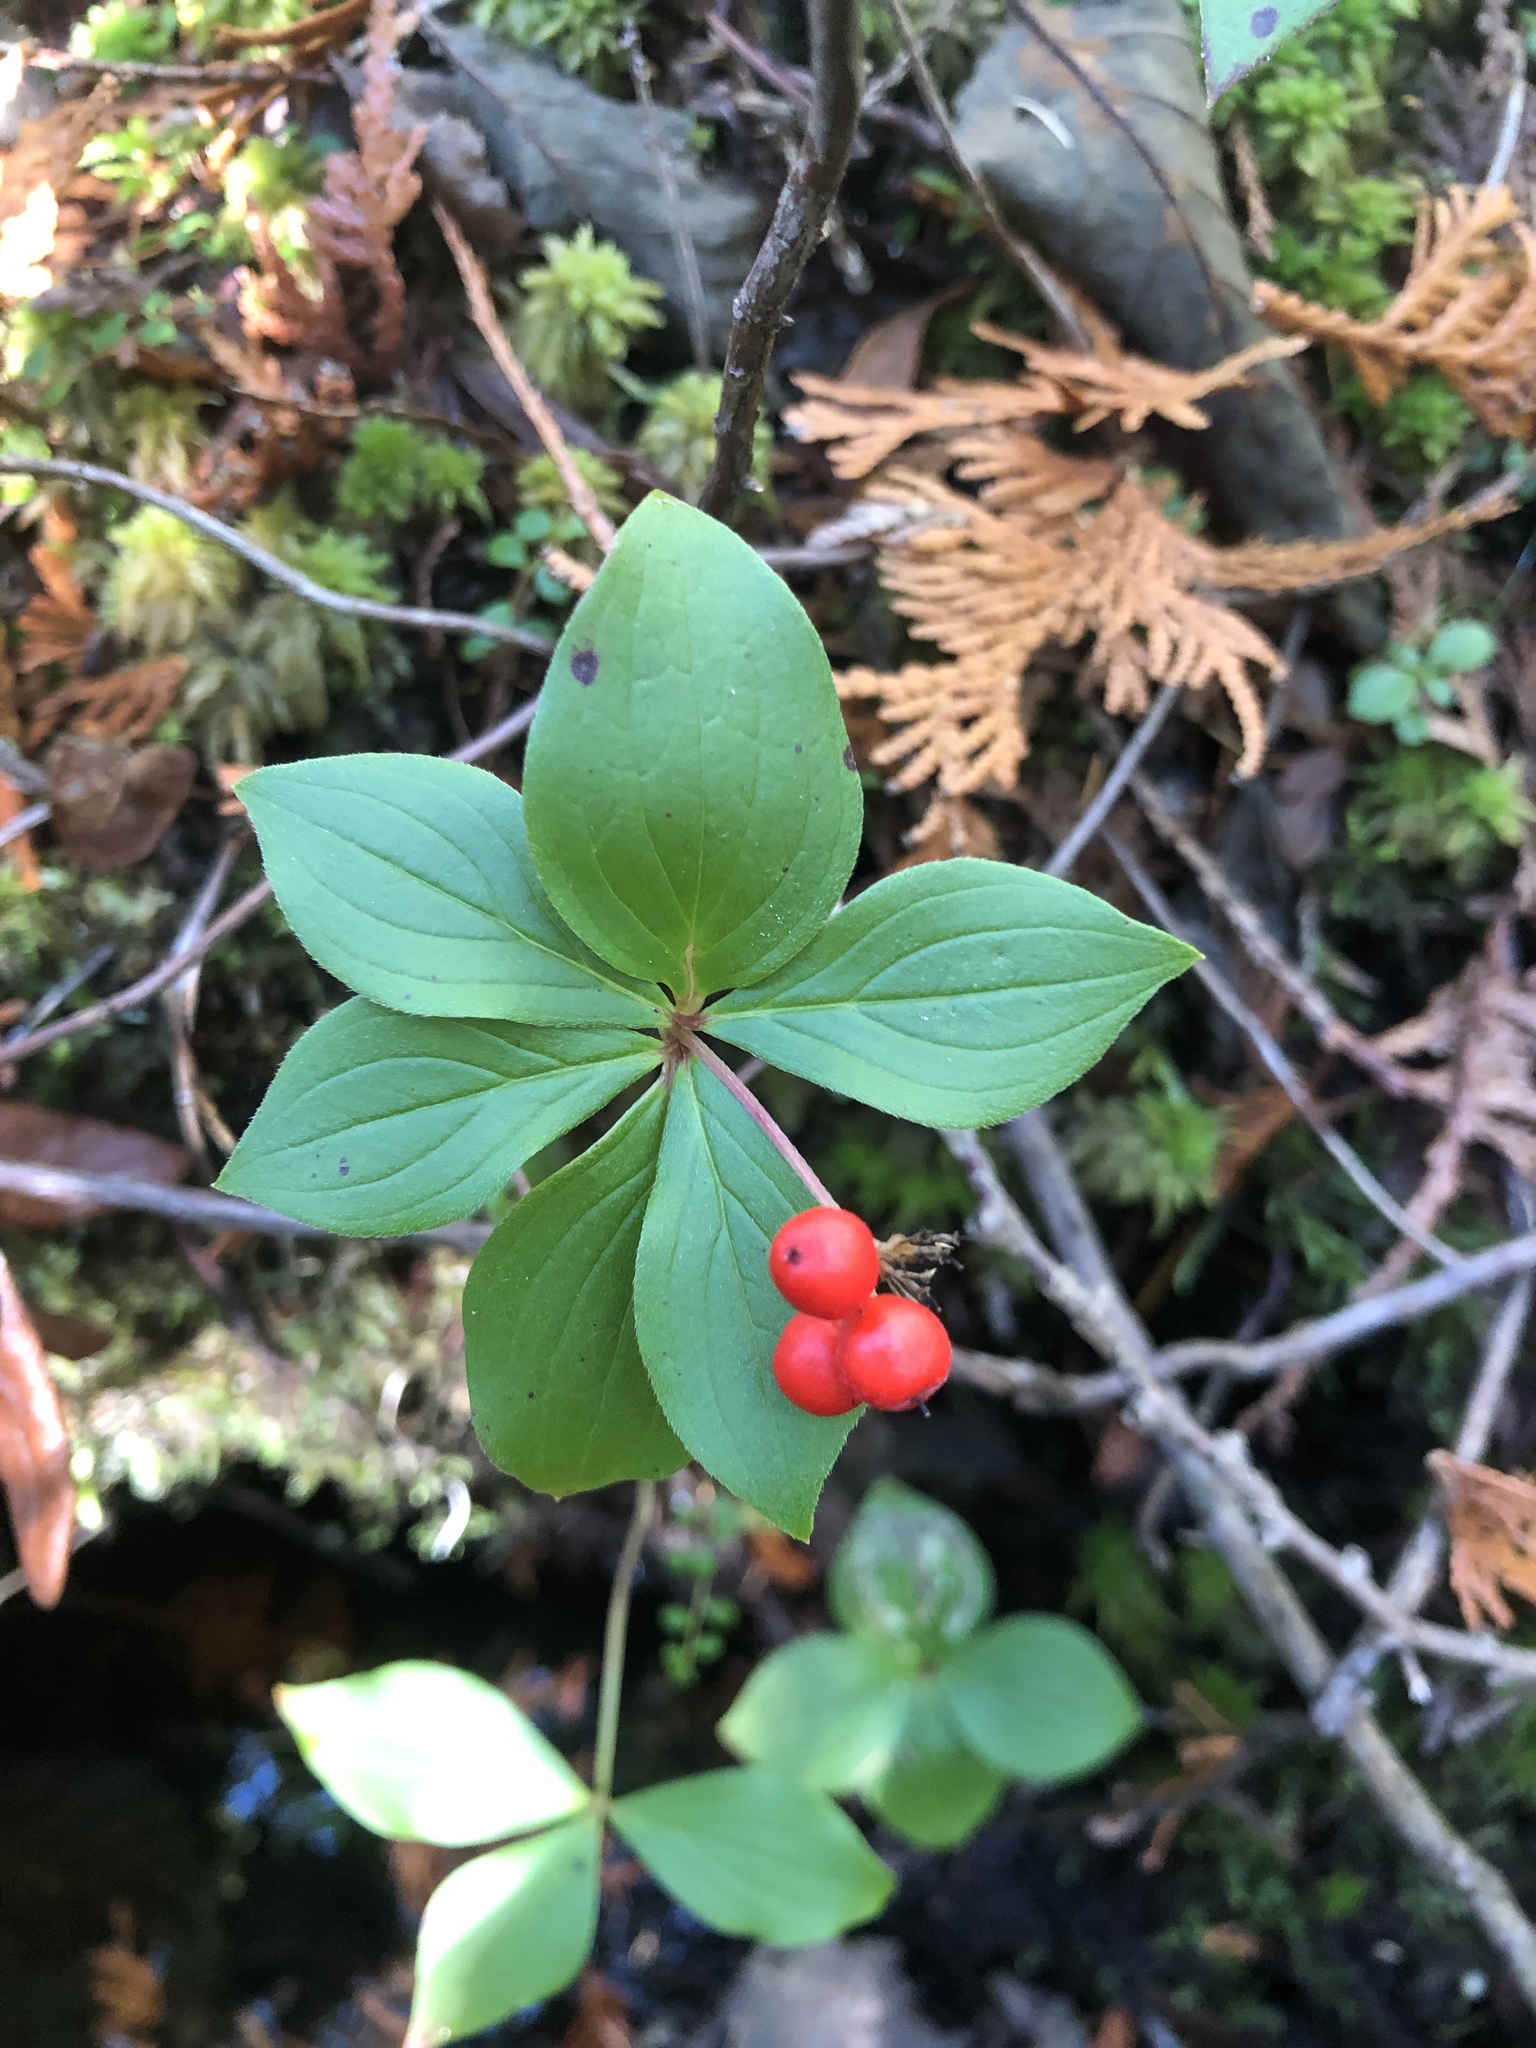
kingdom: Plantae
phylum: Tracheophyta
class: Magnoliopsida
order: Cornales
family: Cornaceae
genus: Cornus
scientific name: Cornus canadensis
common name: Creeping dogwood
